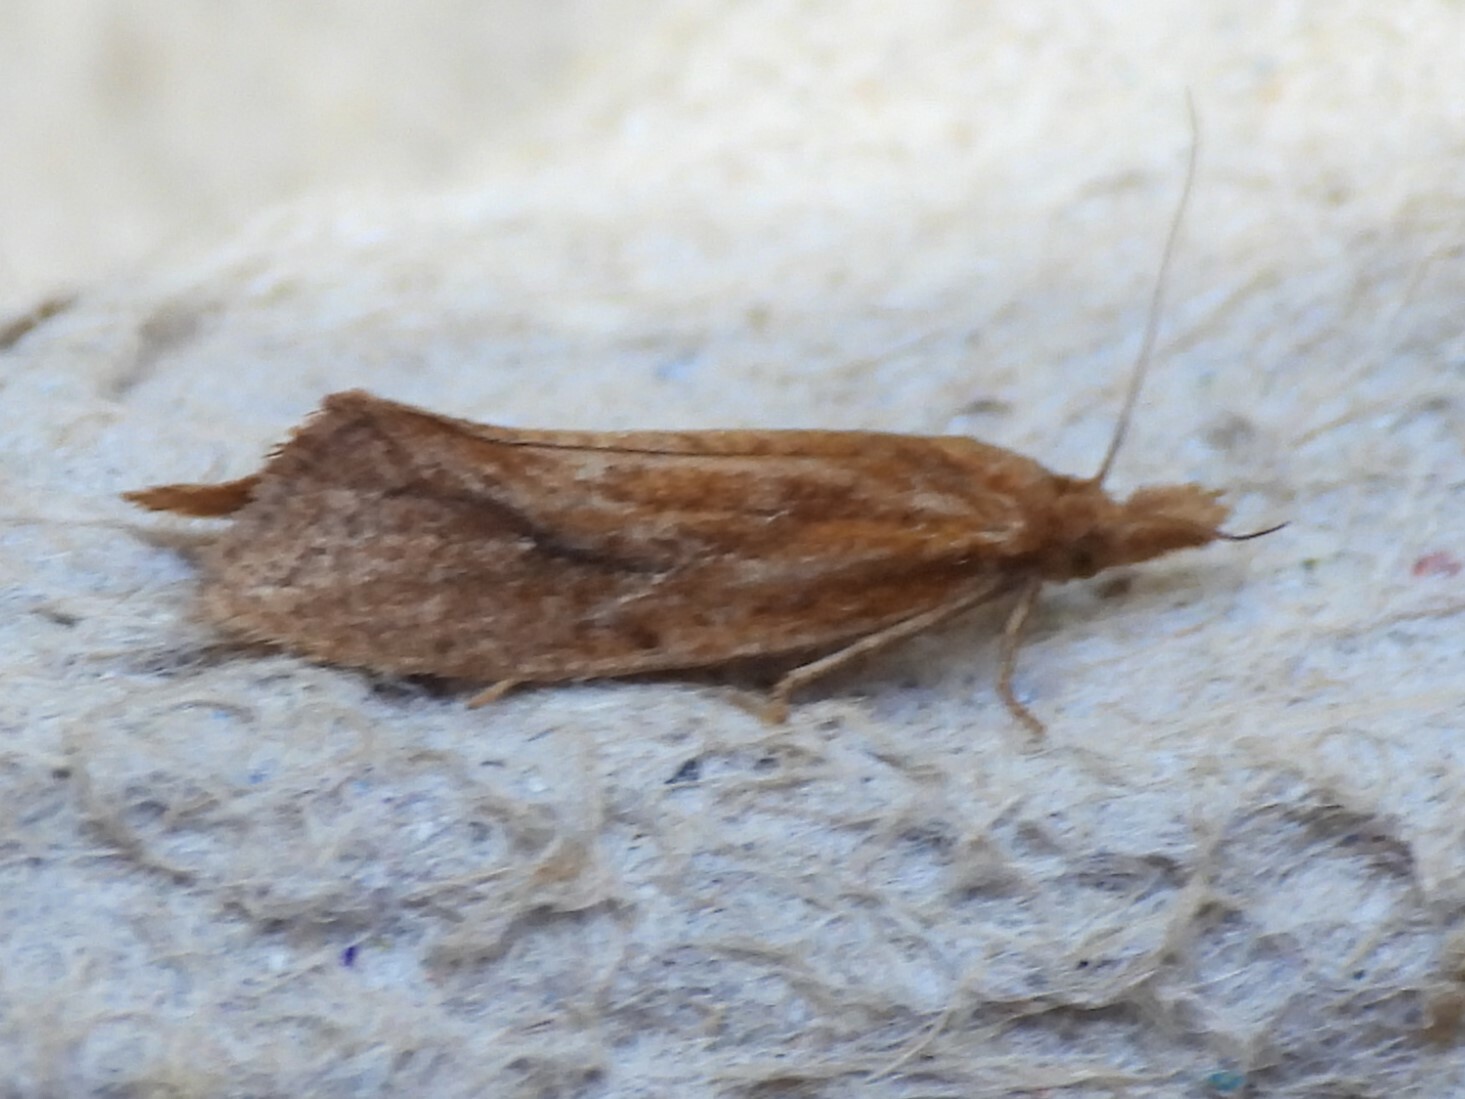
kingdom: Animalia
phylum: Arthropoda
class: Insecta
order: Lepidoptera
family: Tortricidae
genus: Aethes
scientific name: Aethes biscana
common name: Reddish aethes
